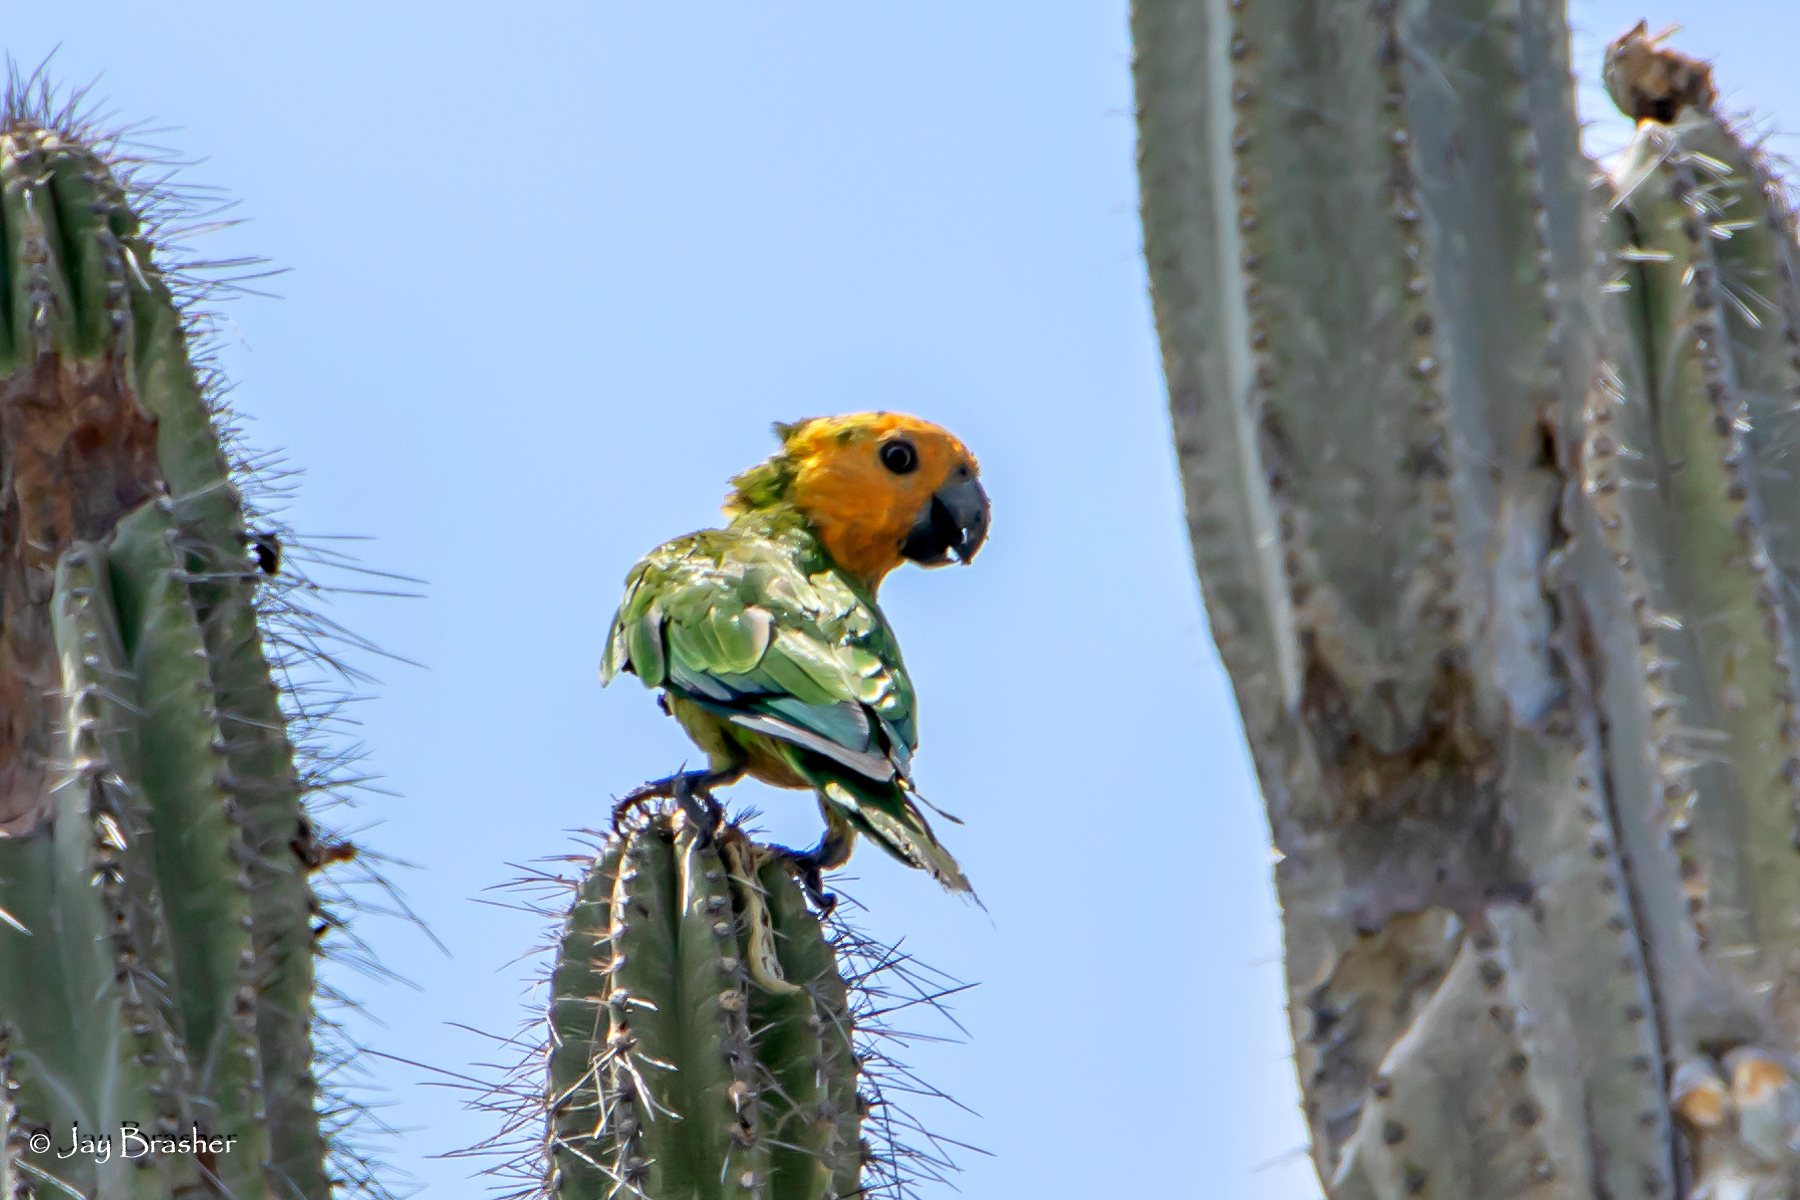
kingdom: Animalia
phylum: Chordata
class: Aves
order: Psittaciformes
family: Psittacidae
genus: Aratinga
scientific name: Aratinga pertinax
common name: Brown-throated parakeet
